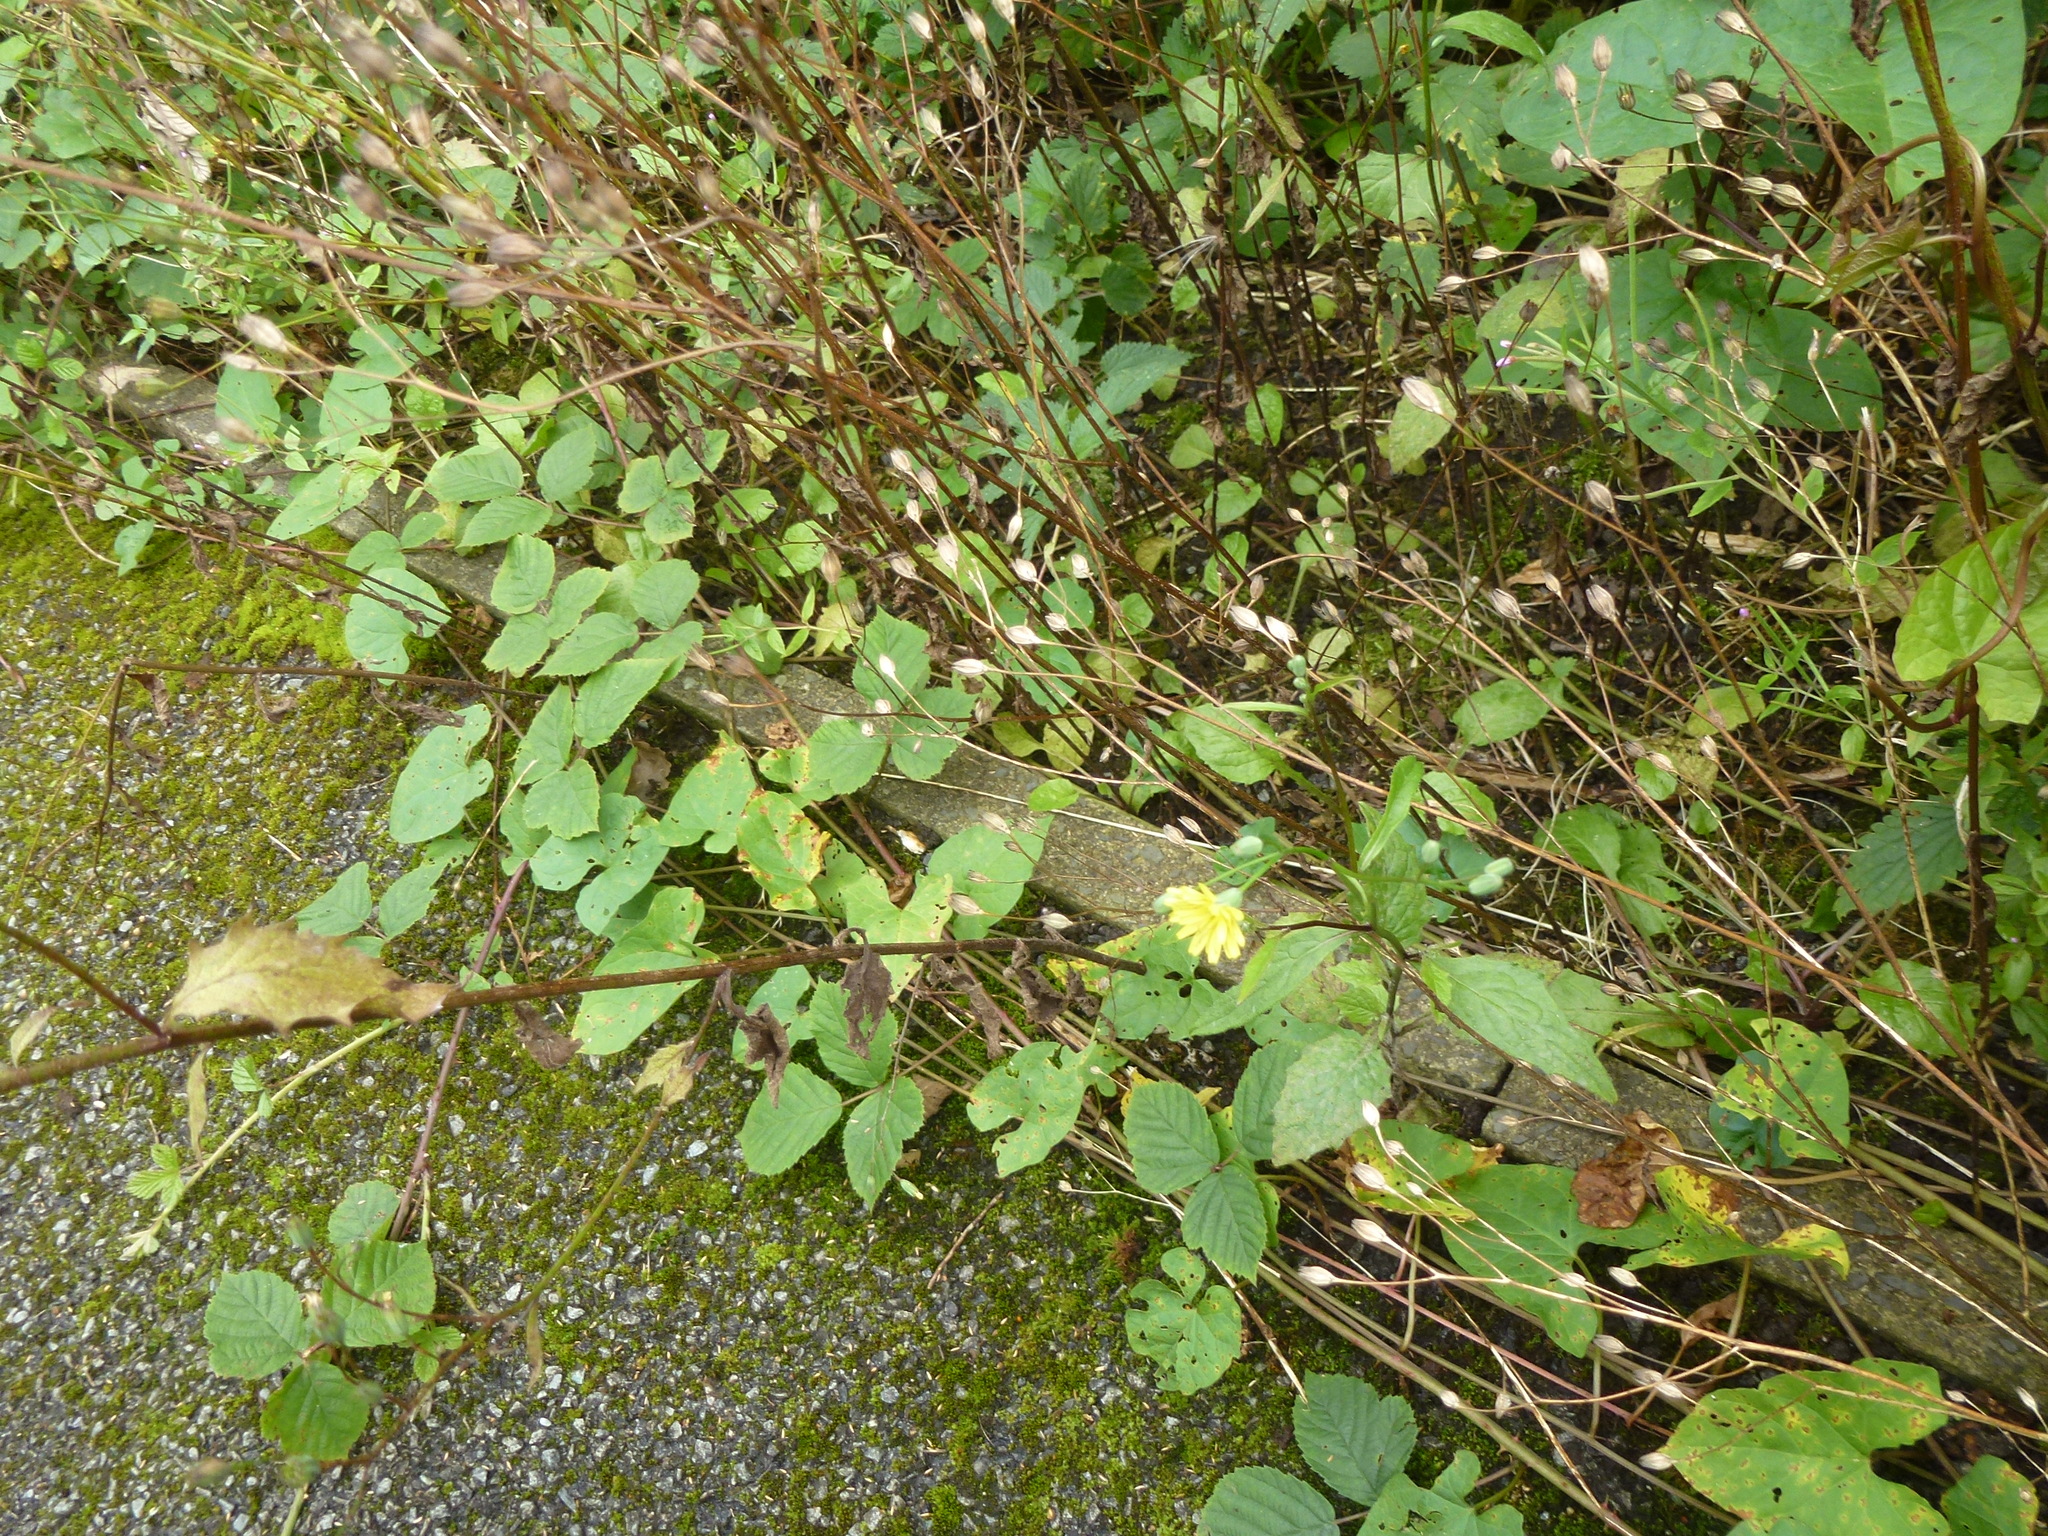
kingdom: Plantae
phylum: Tracheophyta
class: Magnoliopsida
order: Asterales
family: Asteraceae
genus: Lapsana
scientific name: Lapsana communis
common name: Nipplewort
